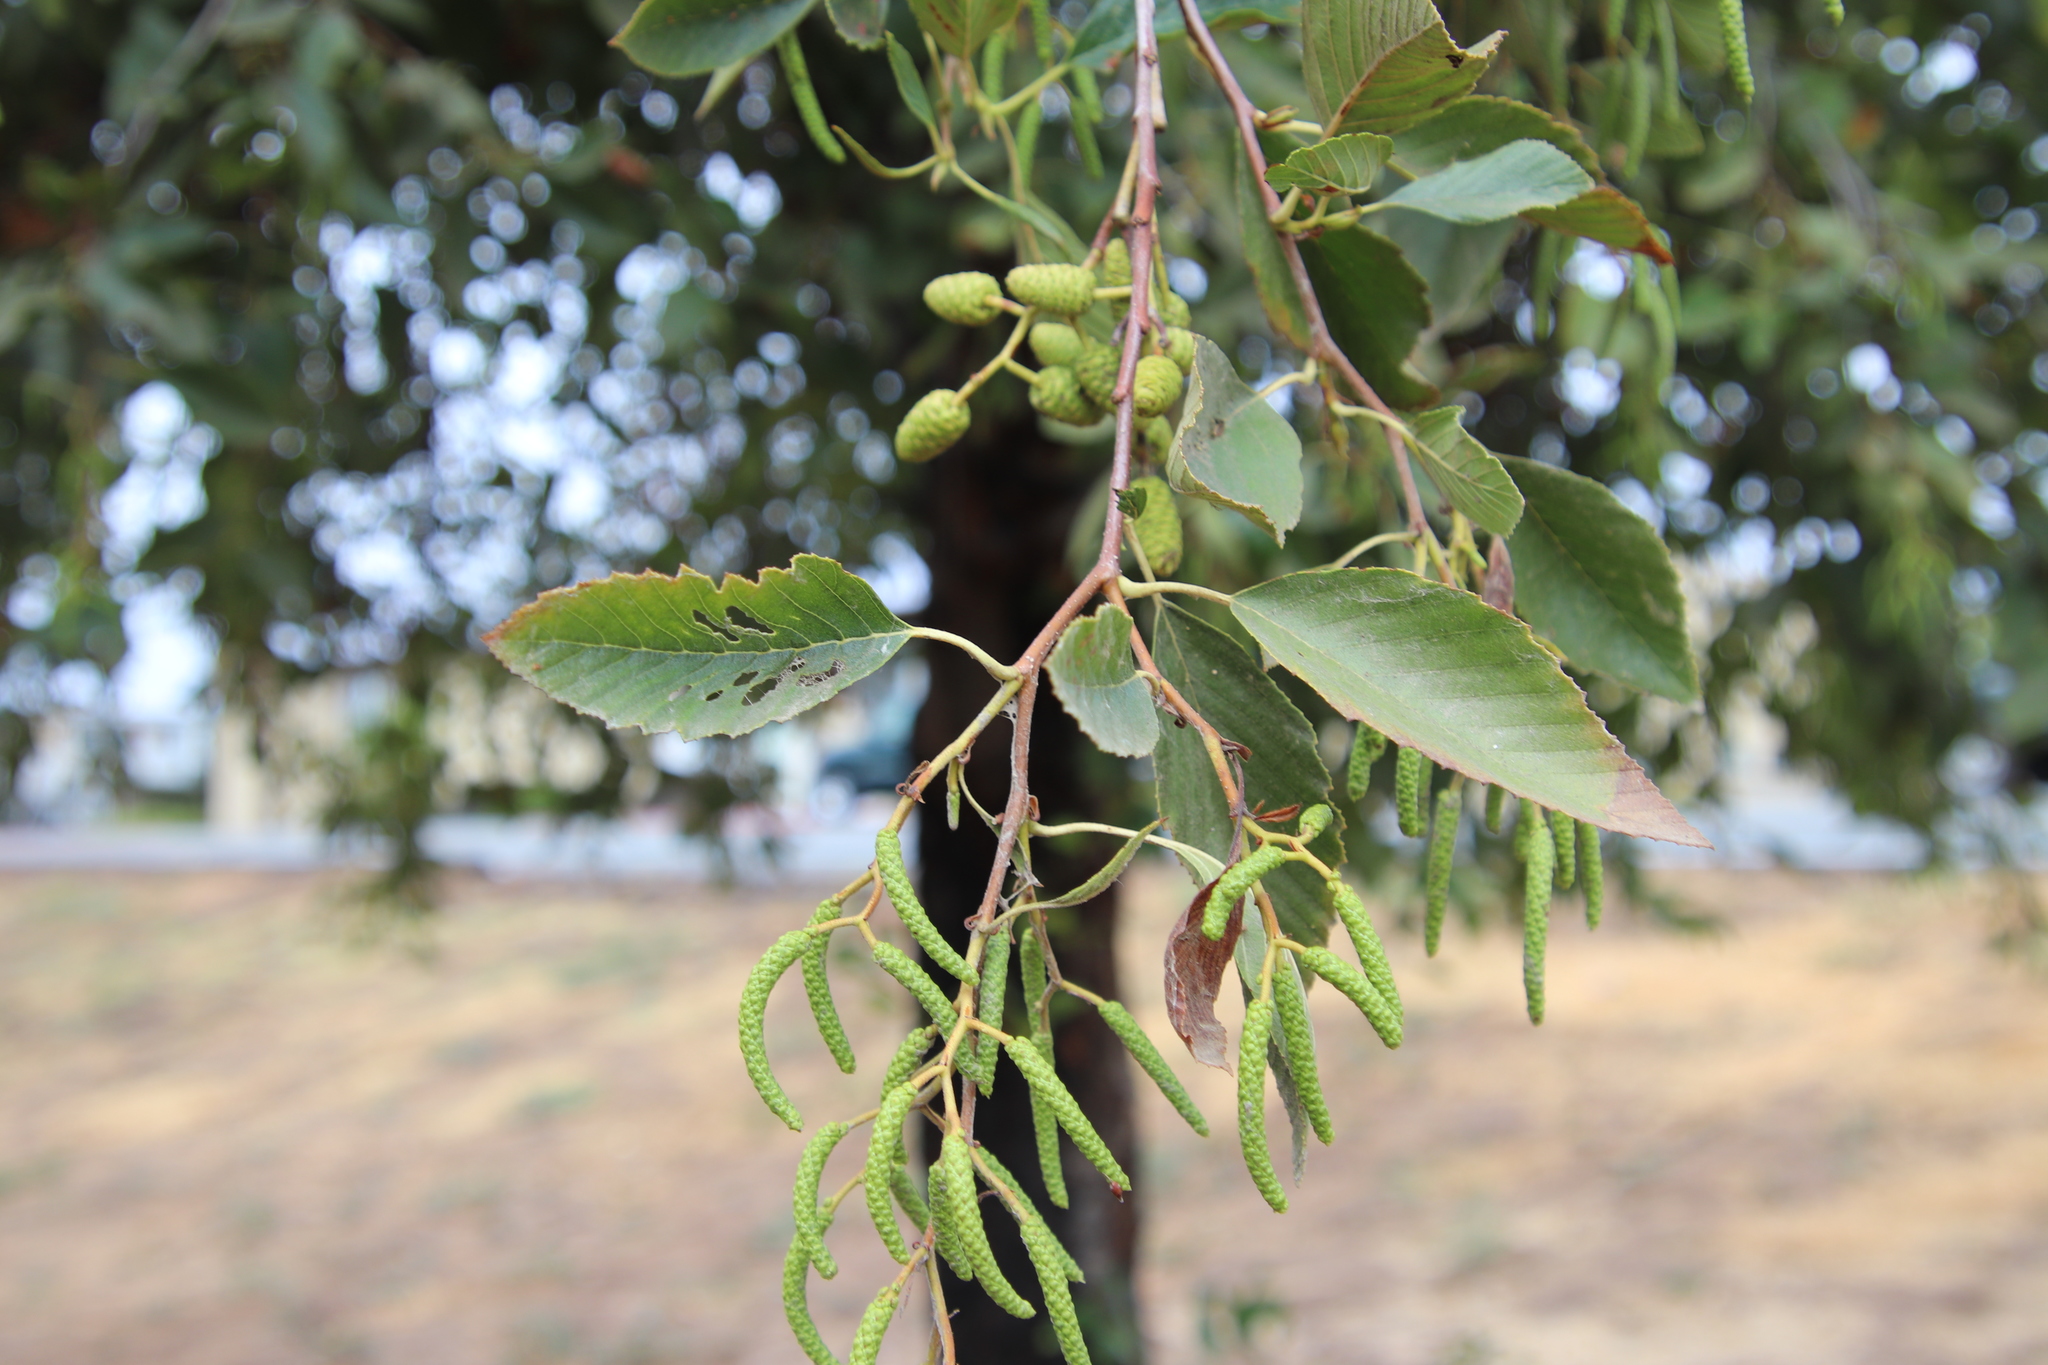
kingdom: Plantae
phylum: Tracheophyta
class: Magnoliopsida
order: Fagales
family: Betulaceae
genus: Alnus
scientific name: Alnus rhombifolia
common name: California alder
